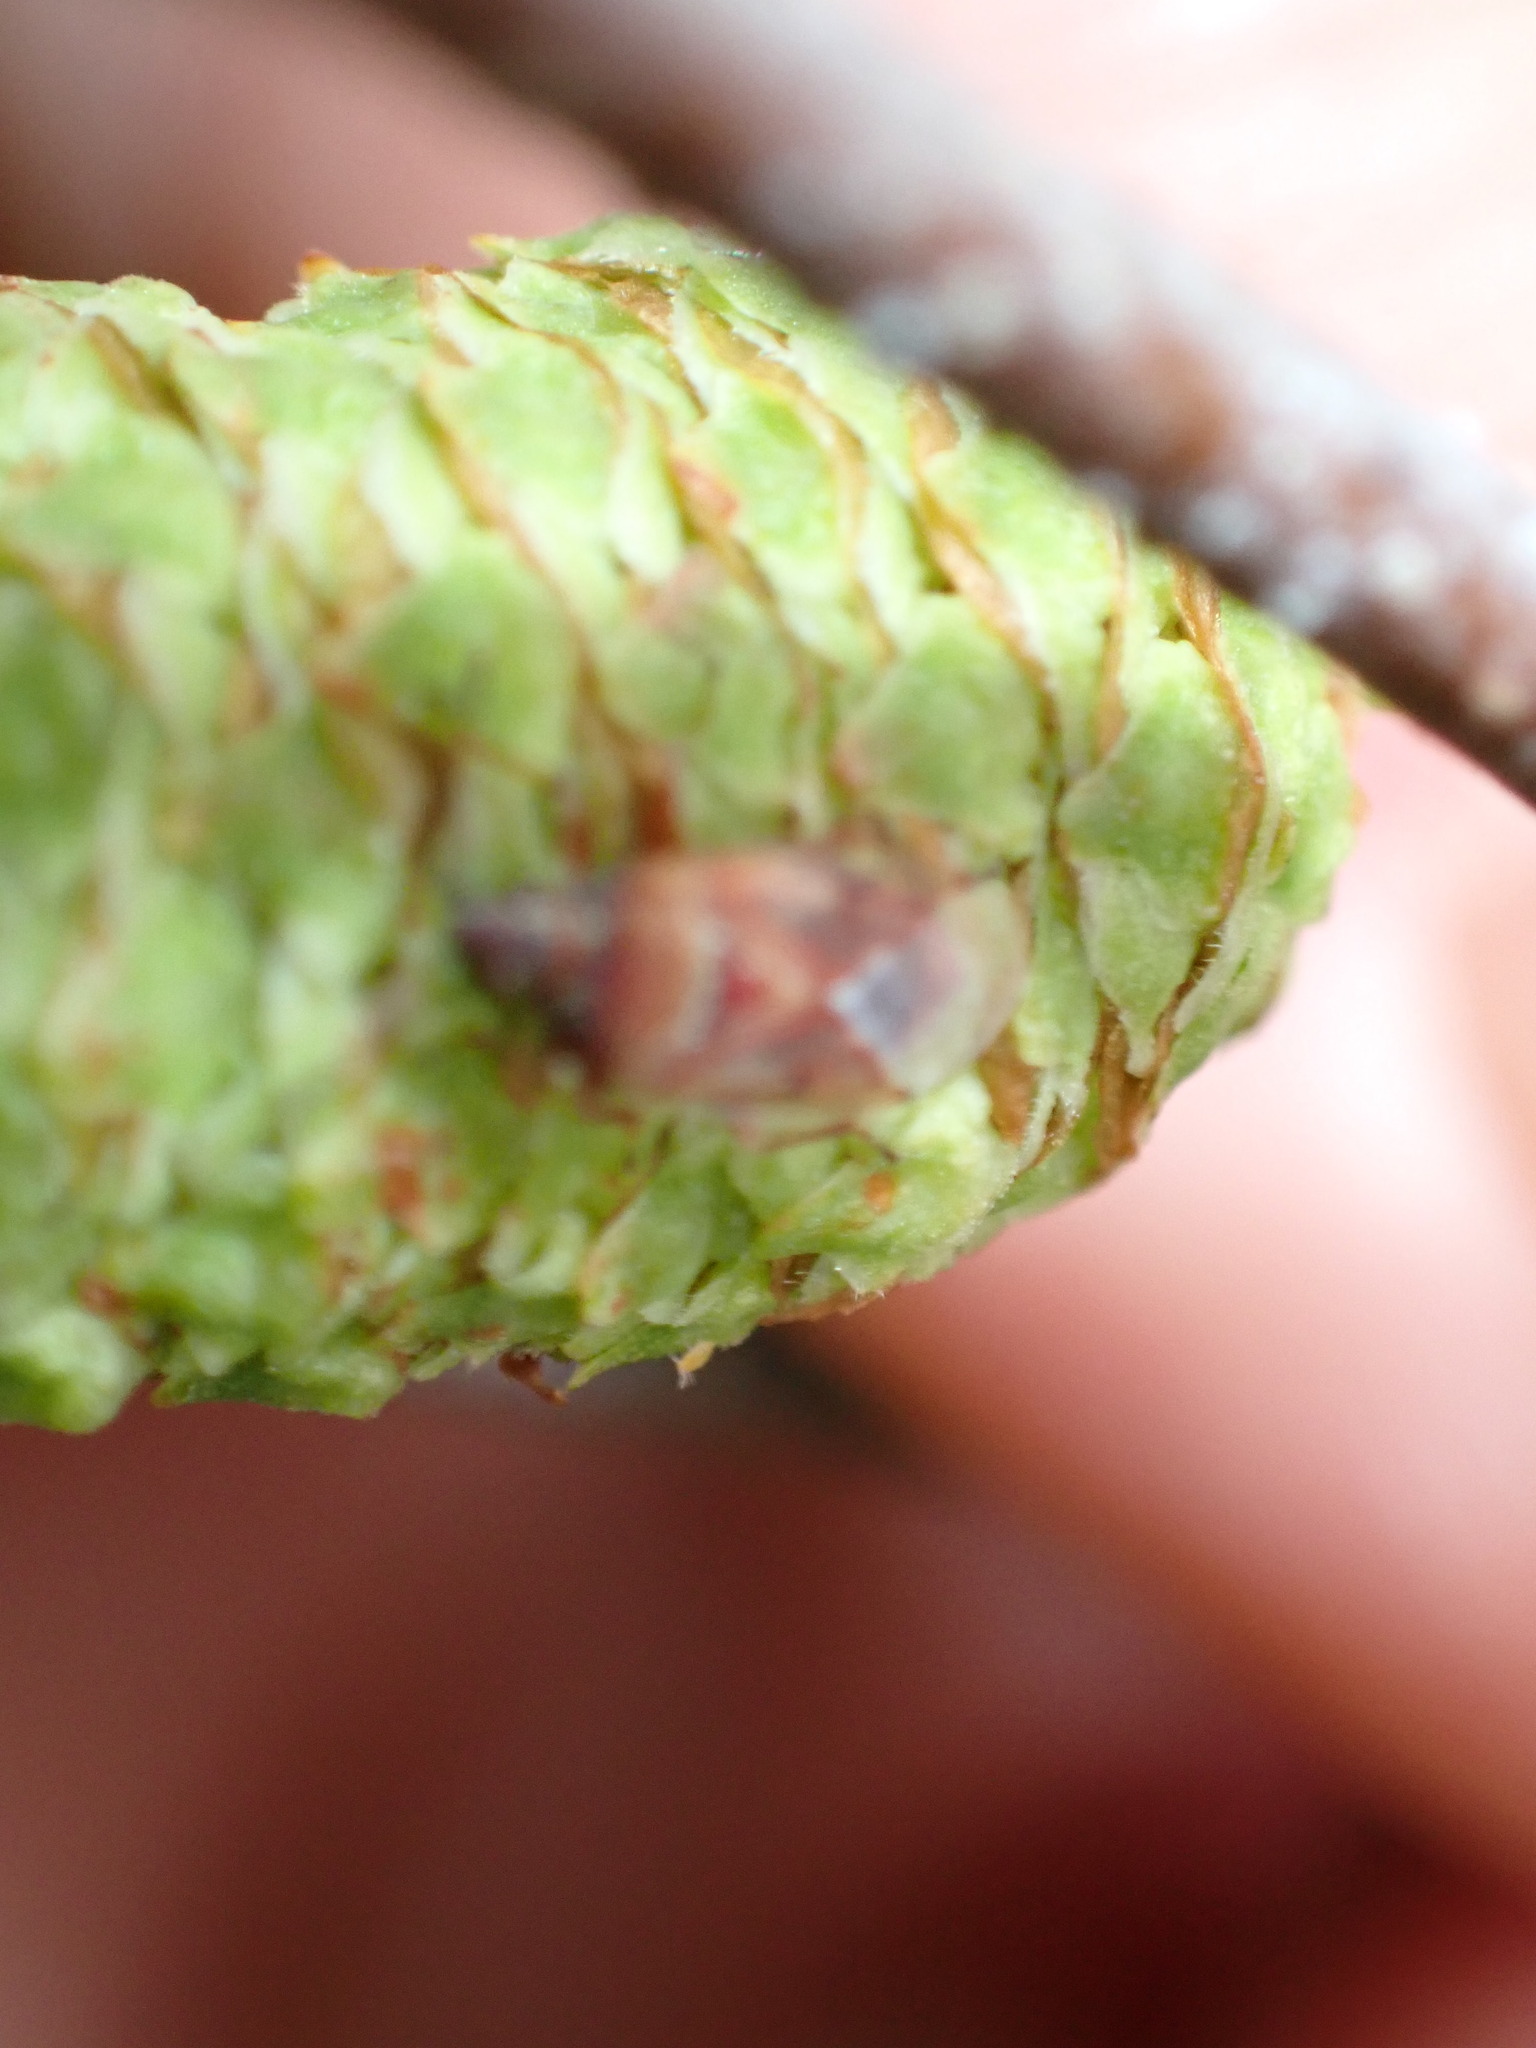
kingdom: Animalia
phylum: Arthropoda
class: Insecta
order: Hemiptera
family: Lygaeidae
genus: Kleidocerys
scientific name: Kleidocerys resedae
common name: Birch catkin bug
